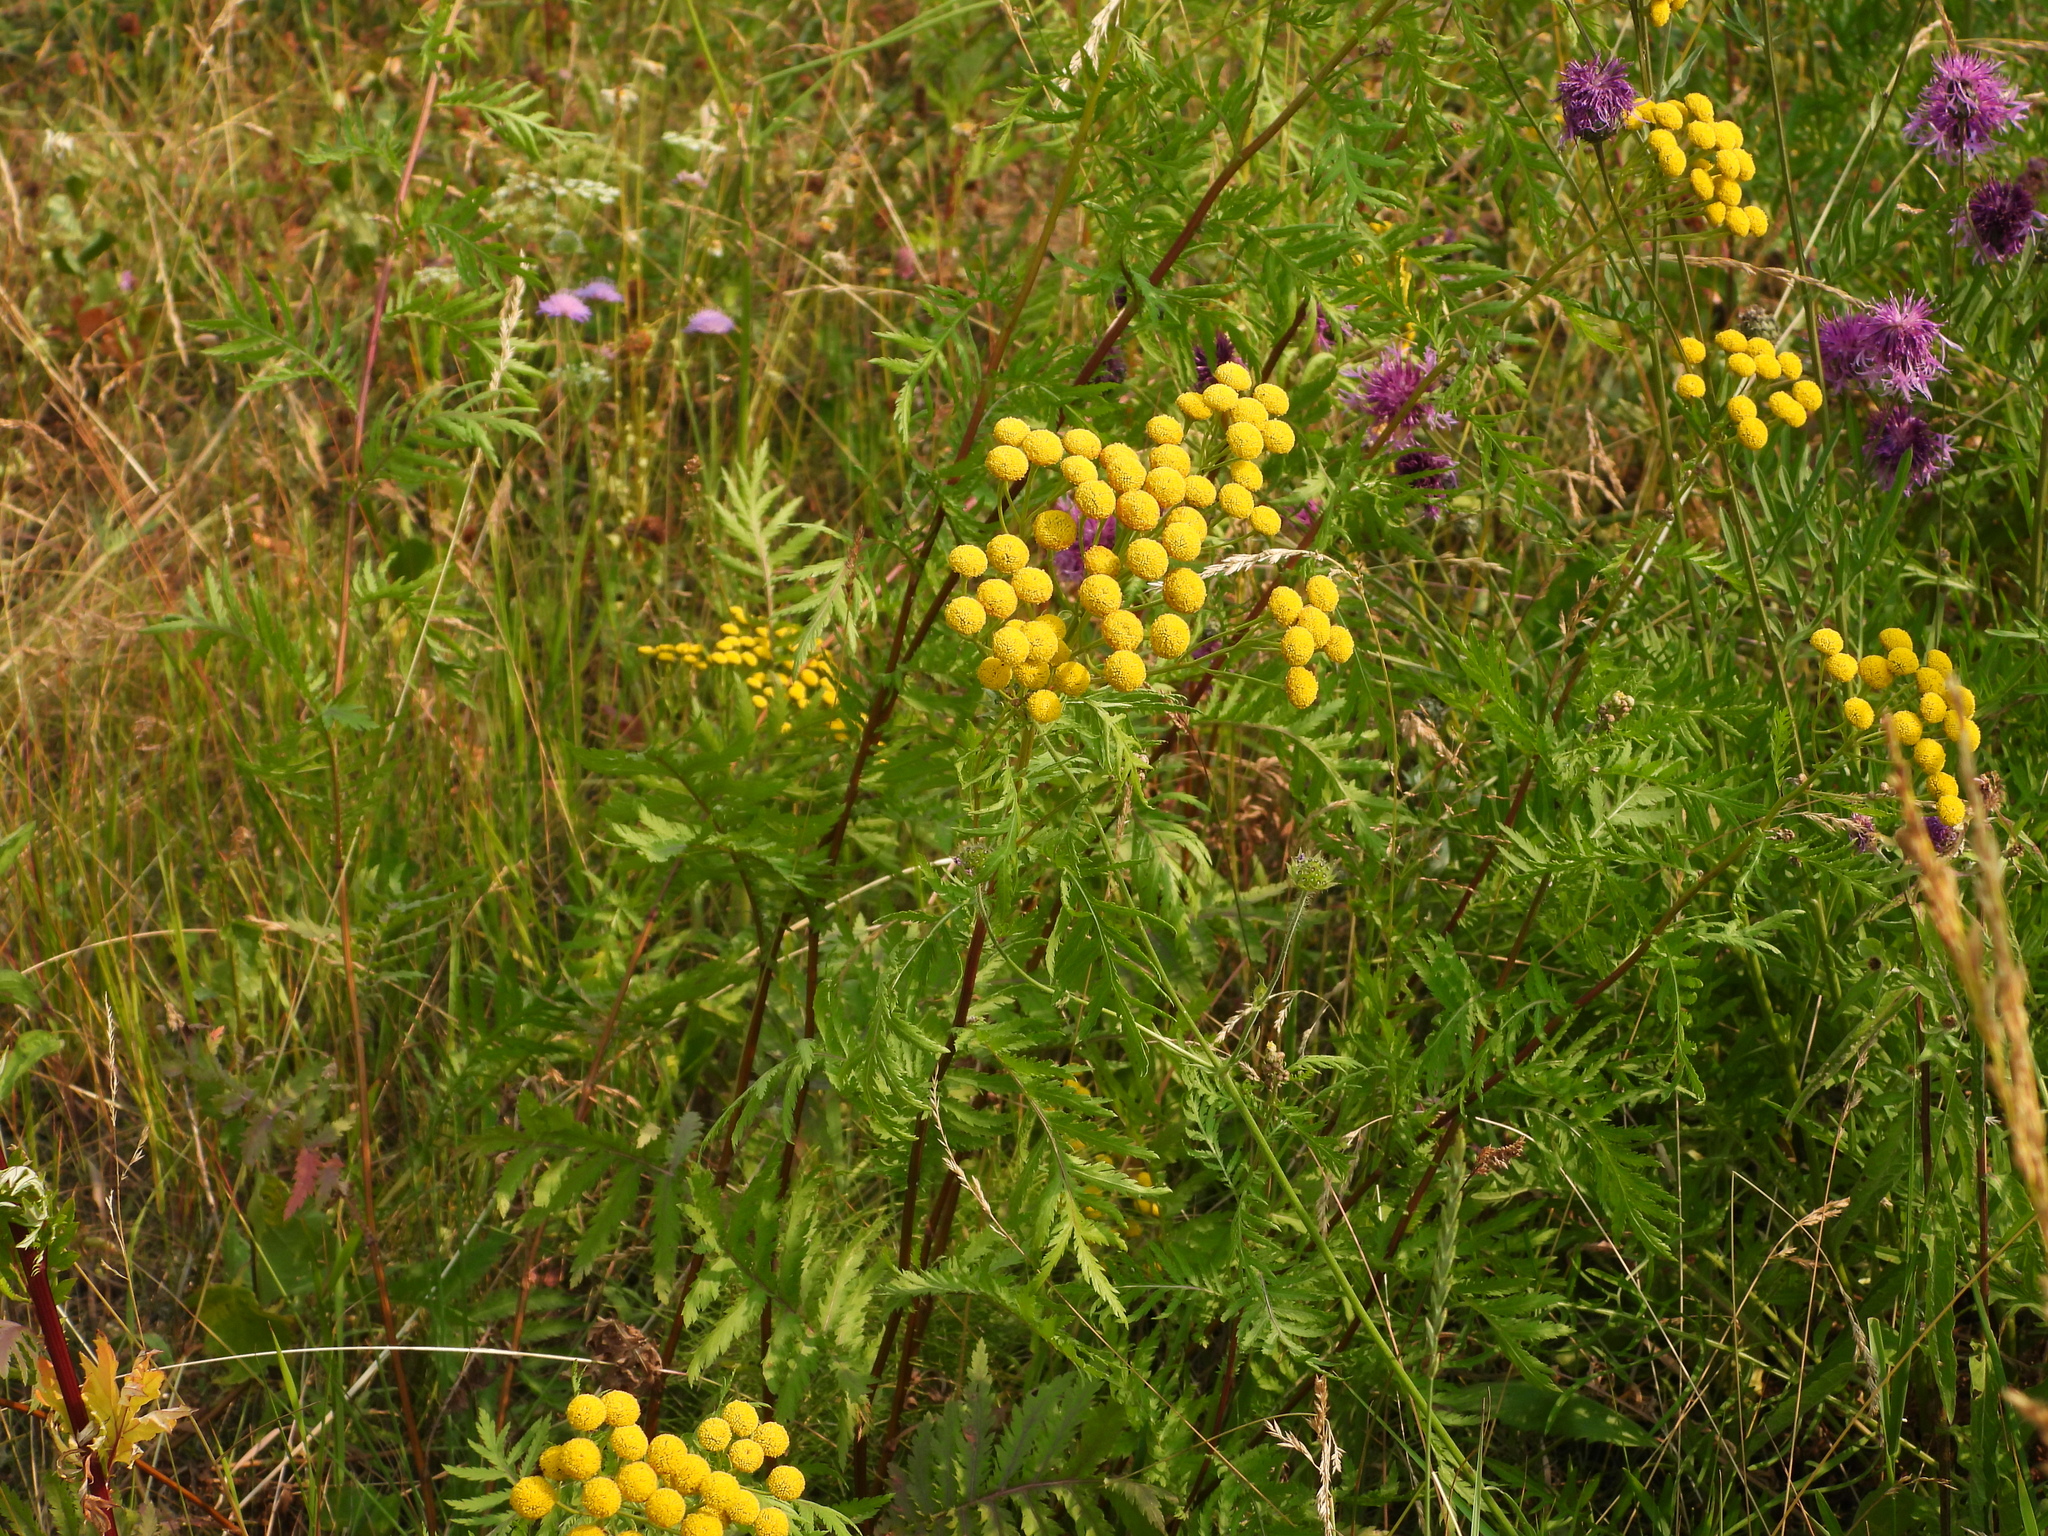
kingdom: Plantae
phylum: Tracheophyta
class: Magnoliopsida
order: Asterales
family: Asteraceae
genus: Tanacetum
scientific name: Tanacetum vulgare
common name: Common tansy
